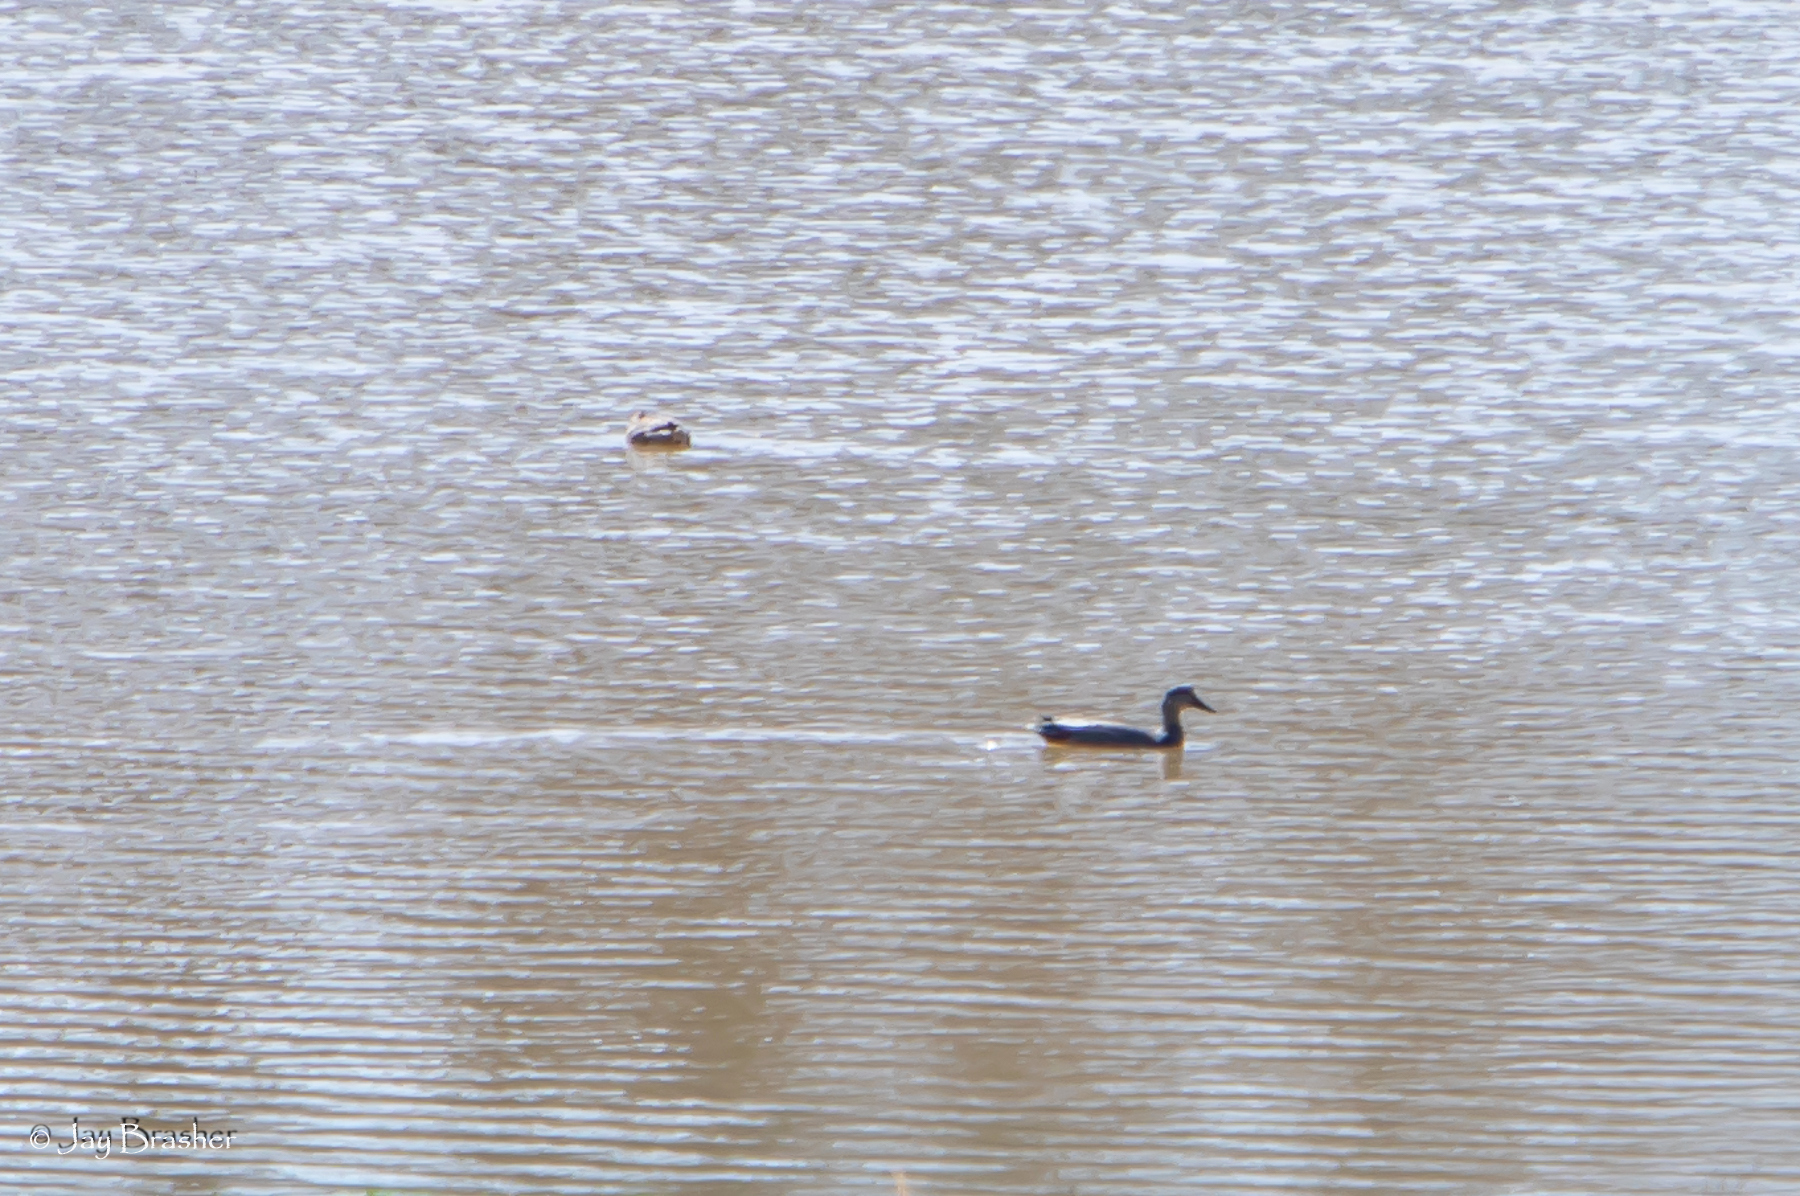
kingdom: Animalia
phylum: Chordata
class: Aves
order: Anseriformes
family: Anatidae
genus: Anas
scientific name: Anas rubripes
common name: American black duck
